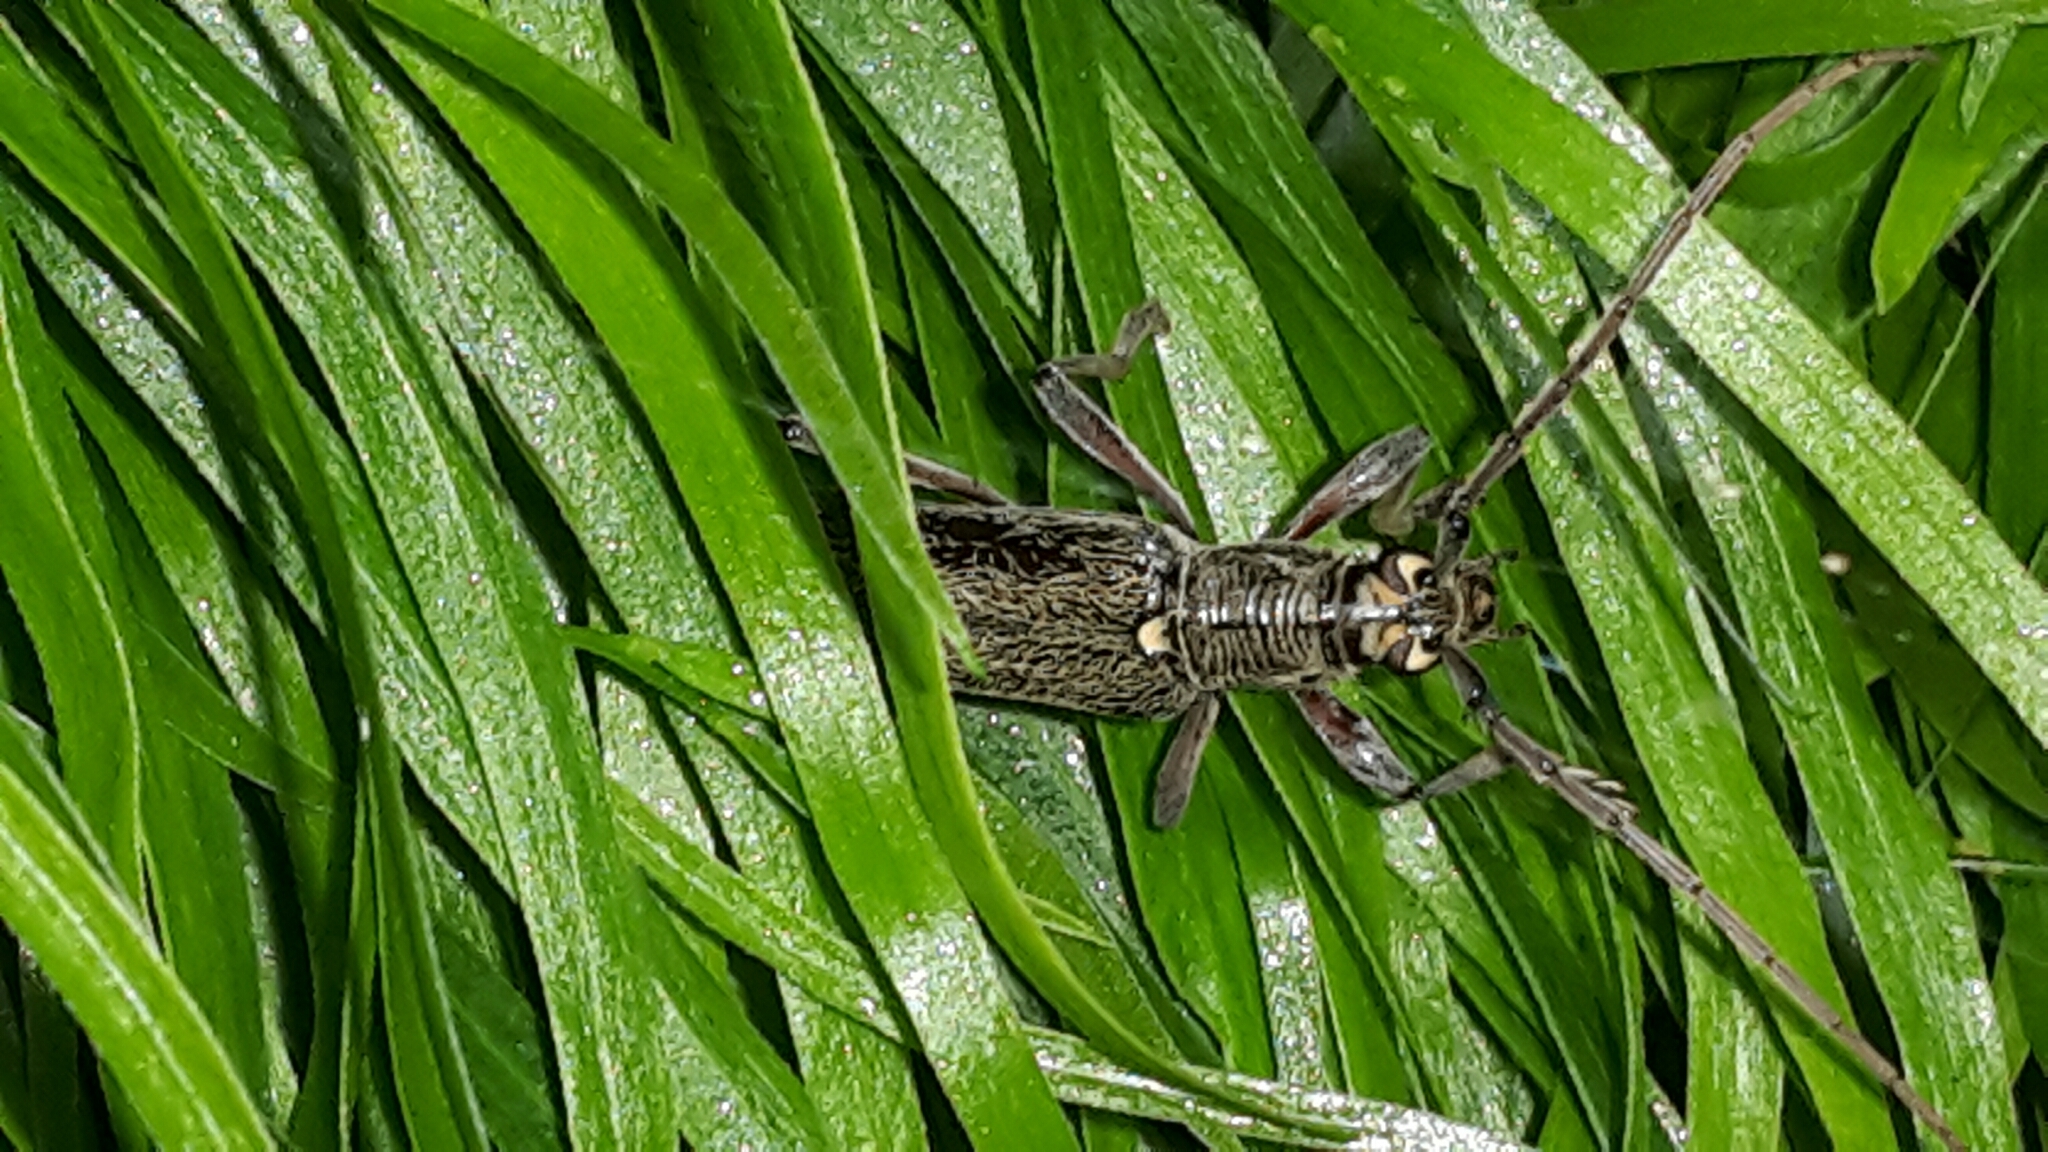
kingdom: Animalia
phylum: Arthropoda
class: Insecta
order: Coleoptera
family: Cerambycidae
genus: Oemona
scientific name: Oemona hirta
